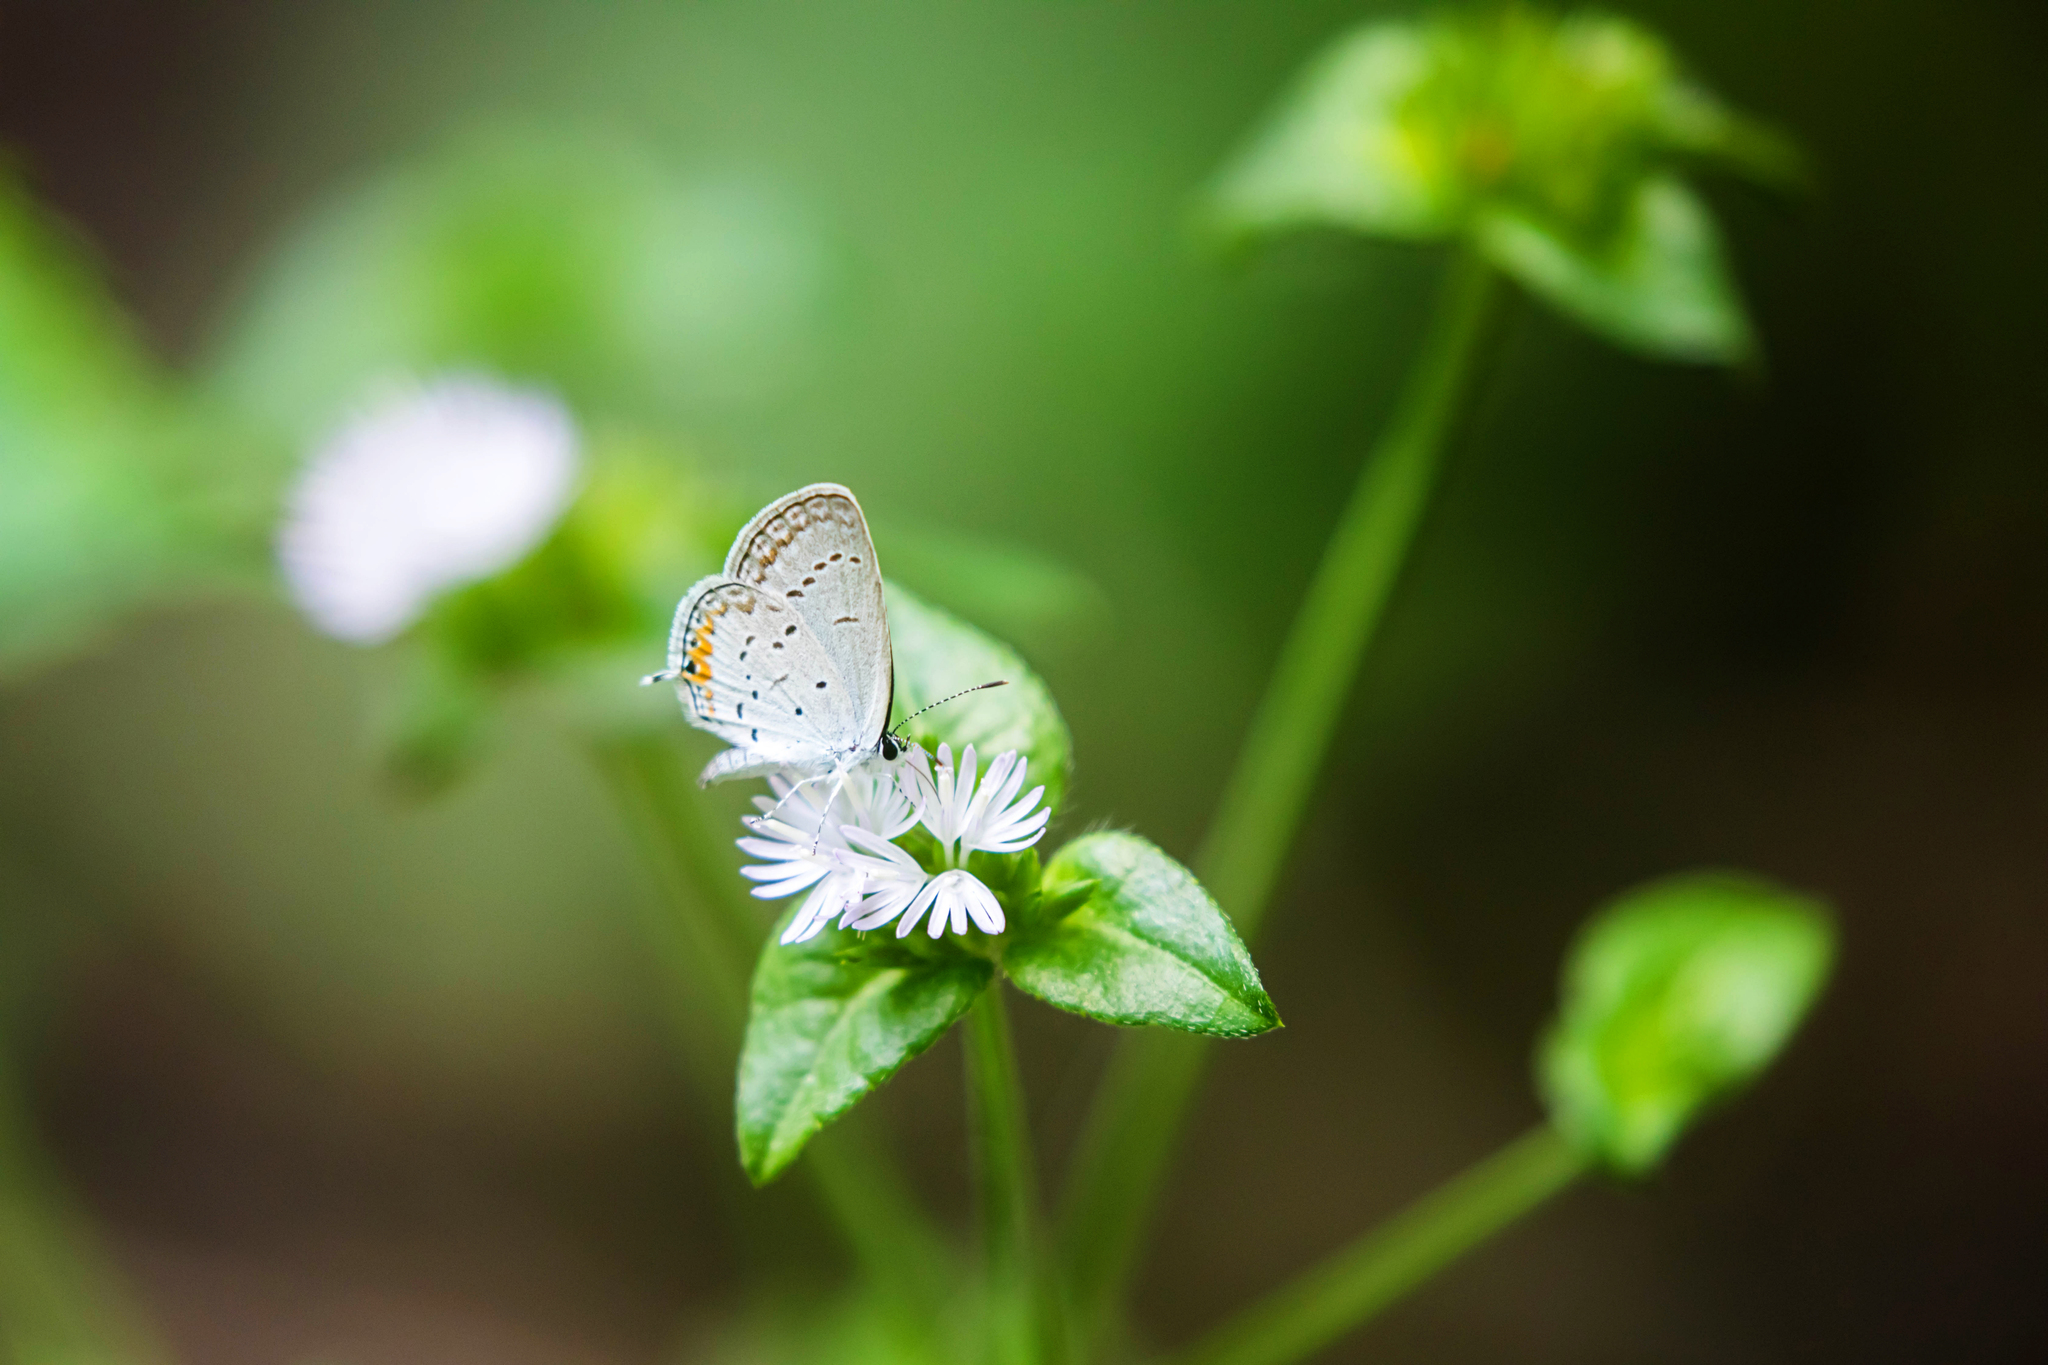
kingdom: Animalia
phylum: Arthropoda
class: Insecta
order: Lepidoptera
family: Lycaenidae
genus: Elkalyce
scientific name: Elkalyce comyntas
